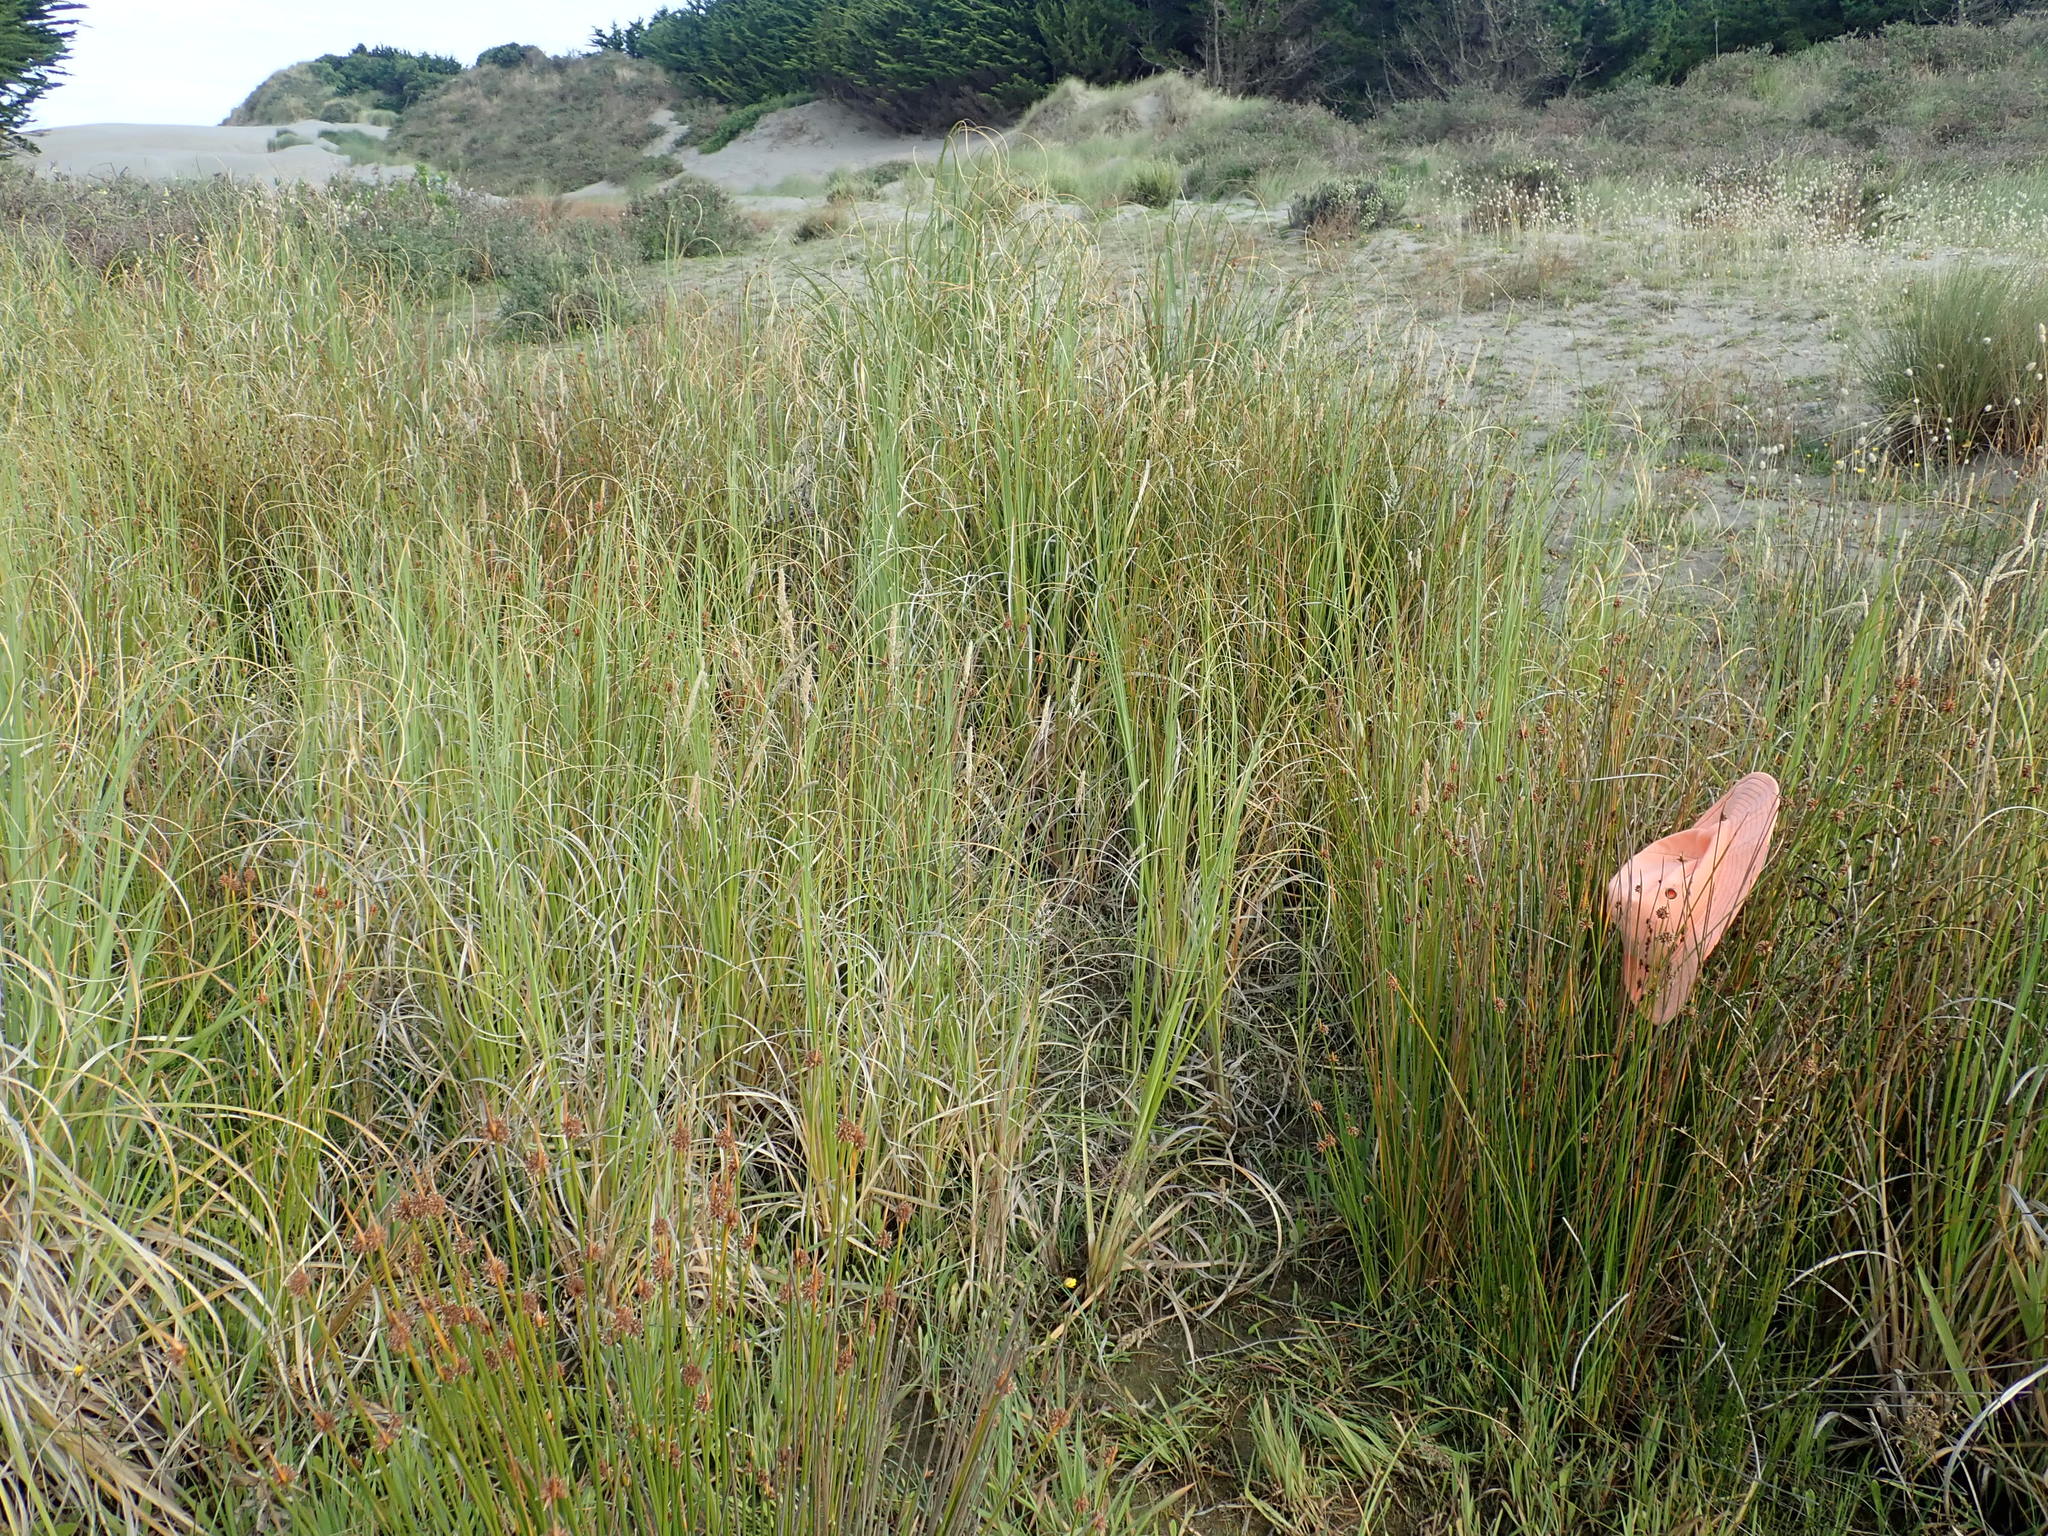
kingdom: Animalia
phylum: Arthropoda
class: Arachnida
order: Araneae
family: Pisauridae
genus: Dolomedes
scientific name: Dolomedes minor
